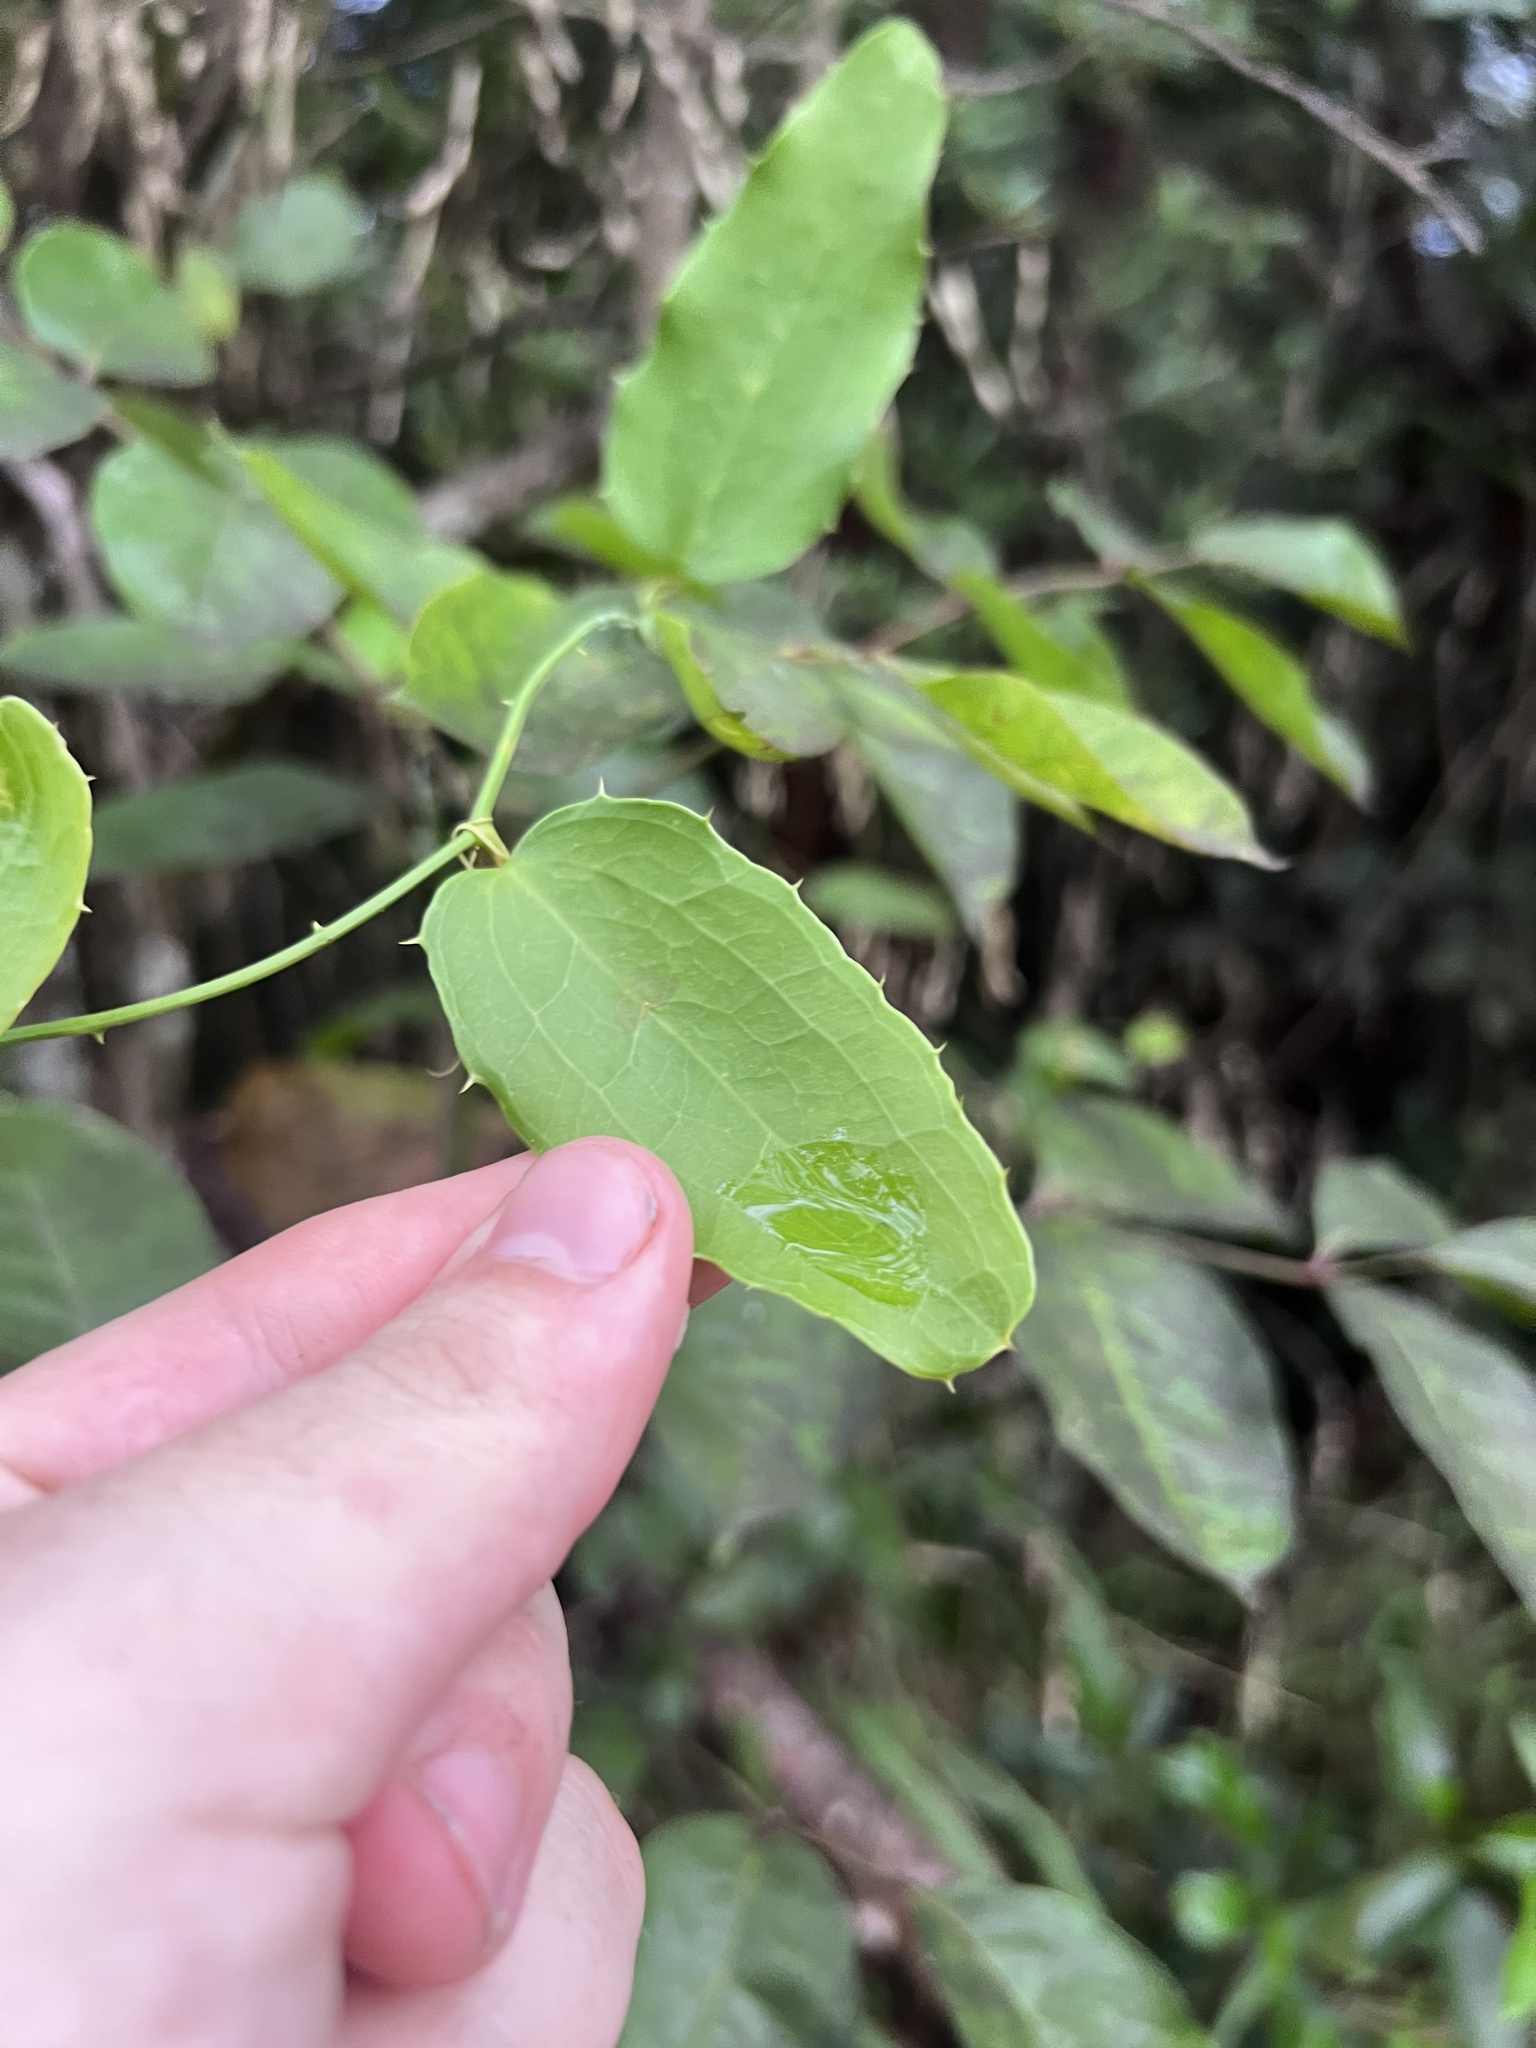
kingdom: Plantae
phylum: Tracheophyta
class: Liliopsida
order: Liliales
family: Smilacaceae
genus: Smilax
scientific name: Smilax havanensis
